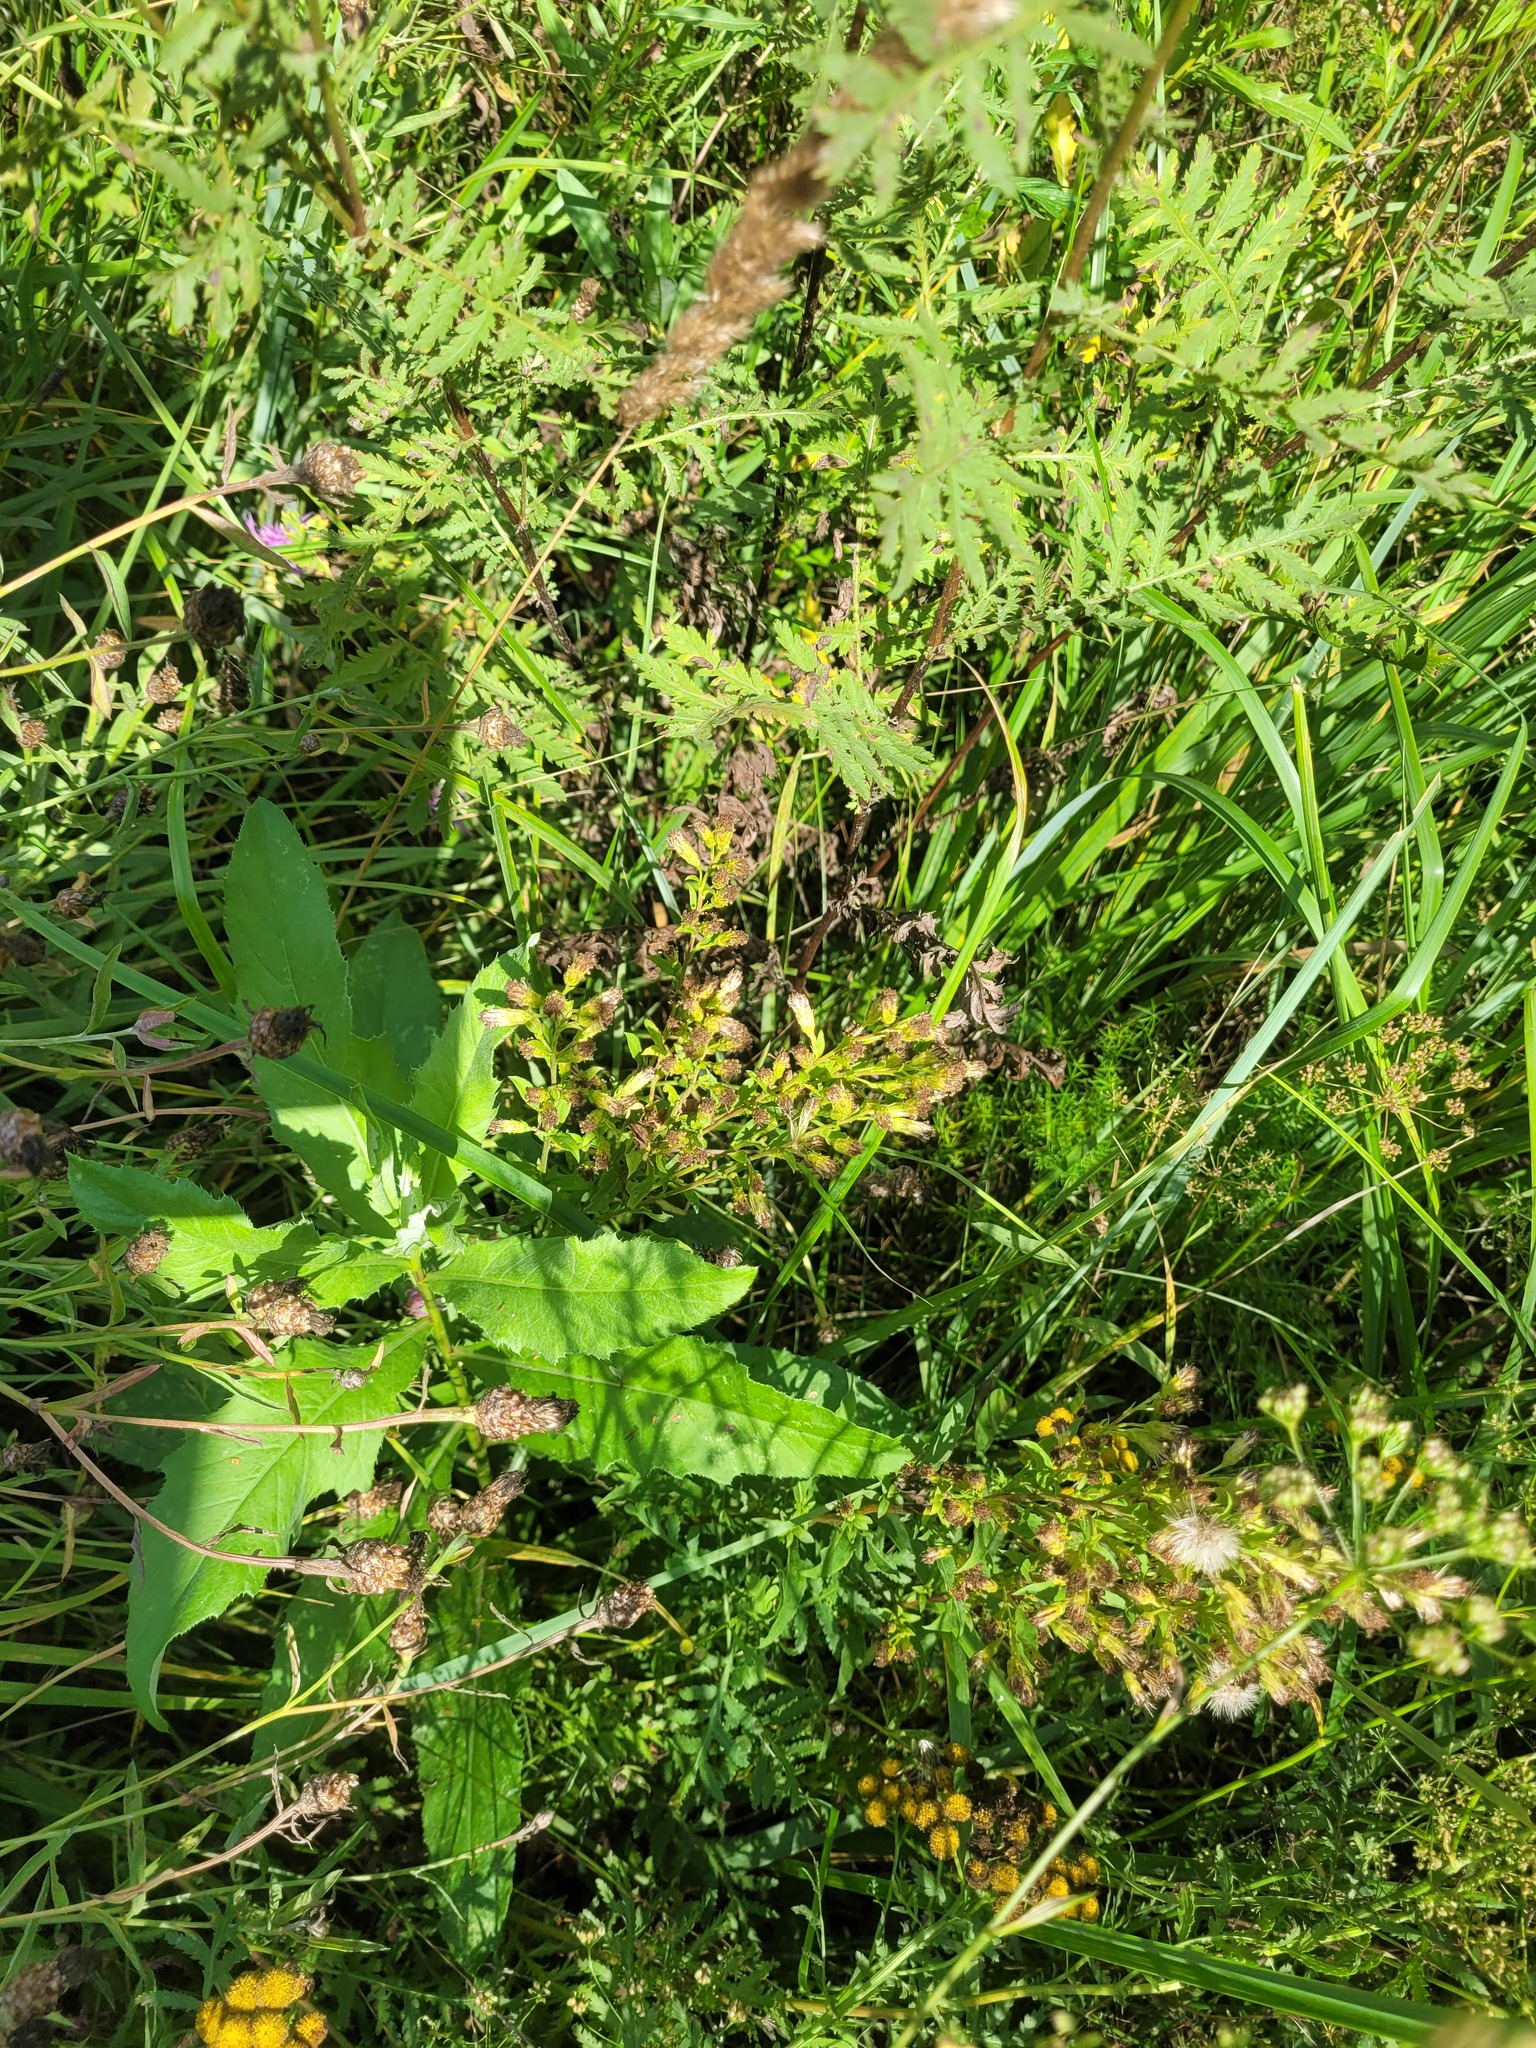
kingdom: Plantae
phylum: Tracheophyta
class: Magnoliopsida
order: Asterales
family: Asteraceae
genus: Solidago
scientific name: Solidago virgaurea
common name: Goldenrod
